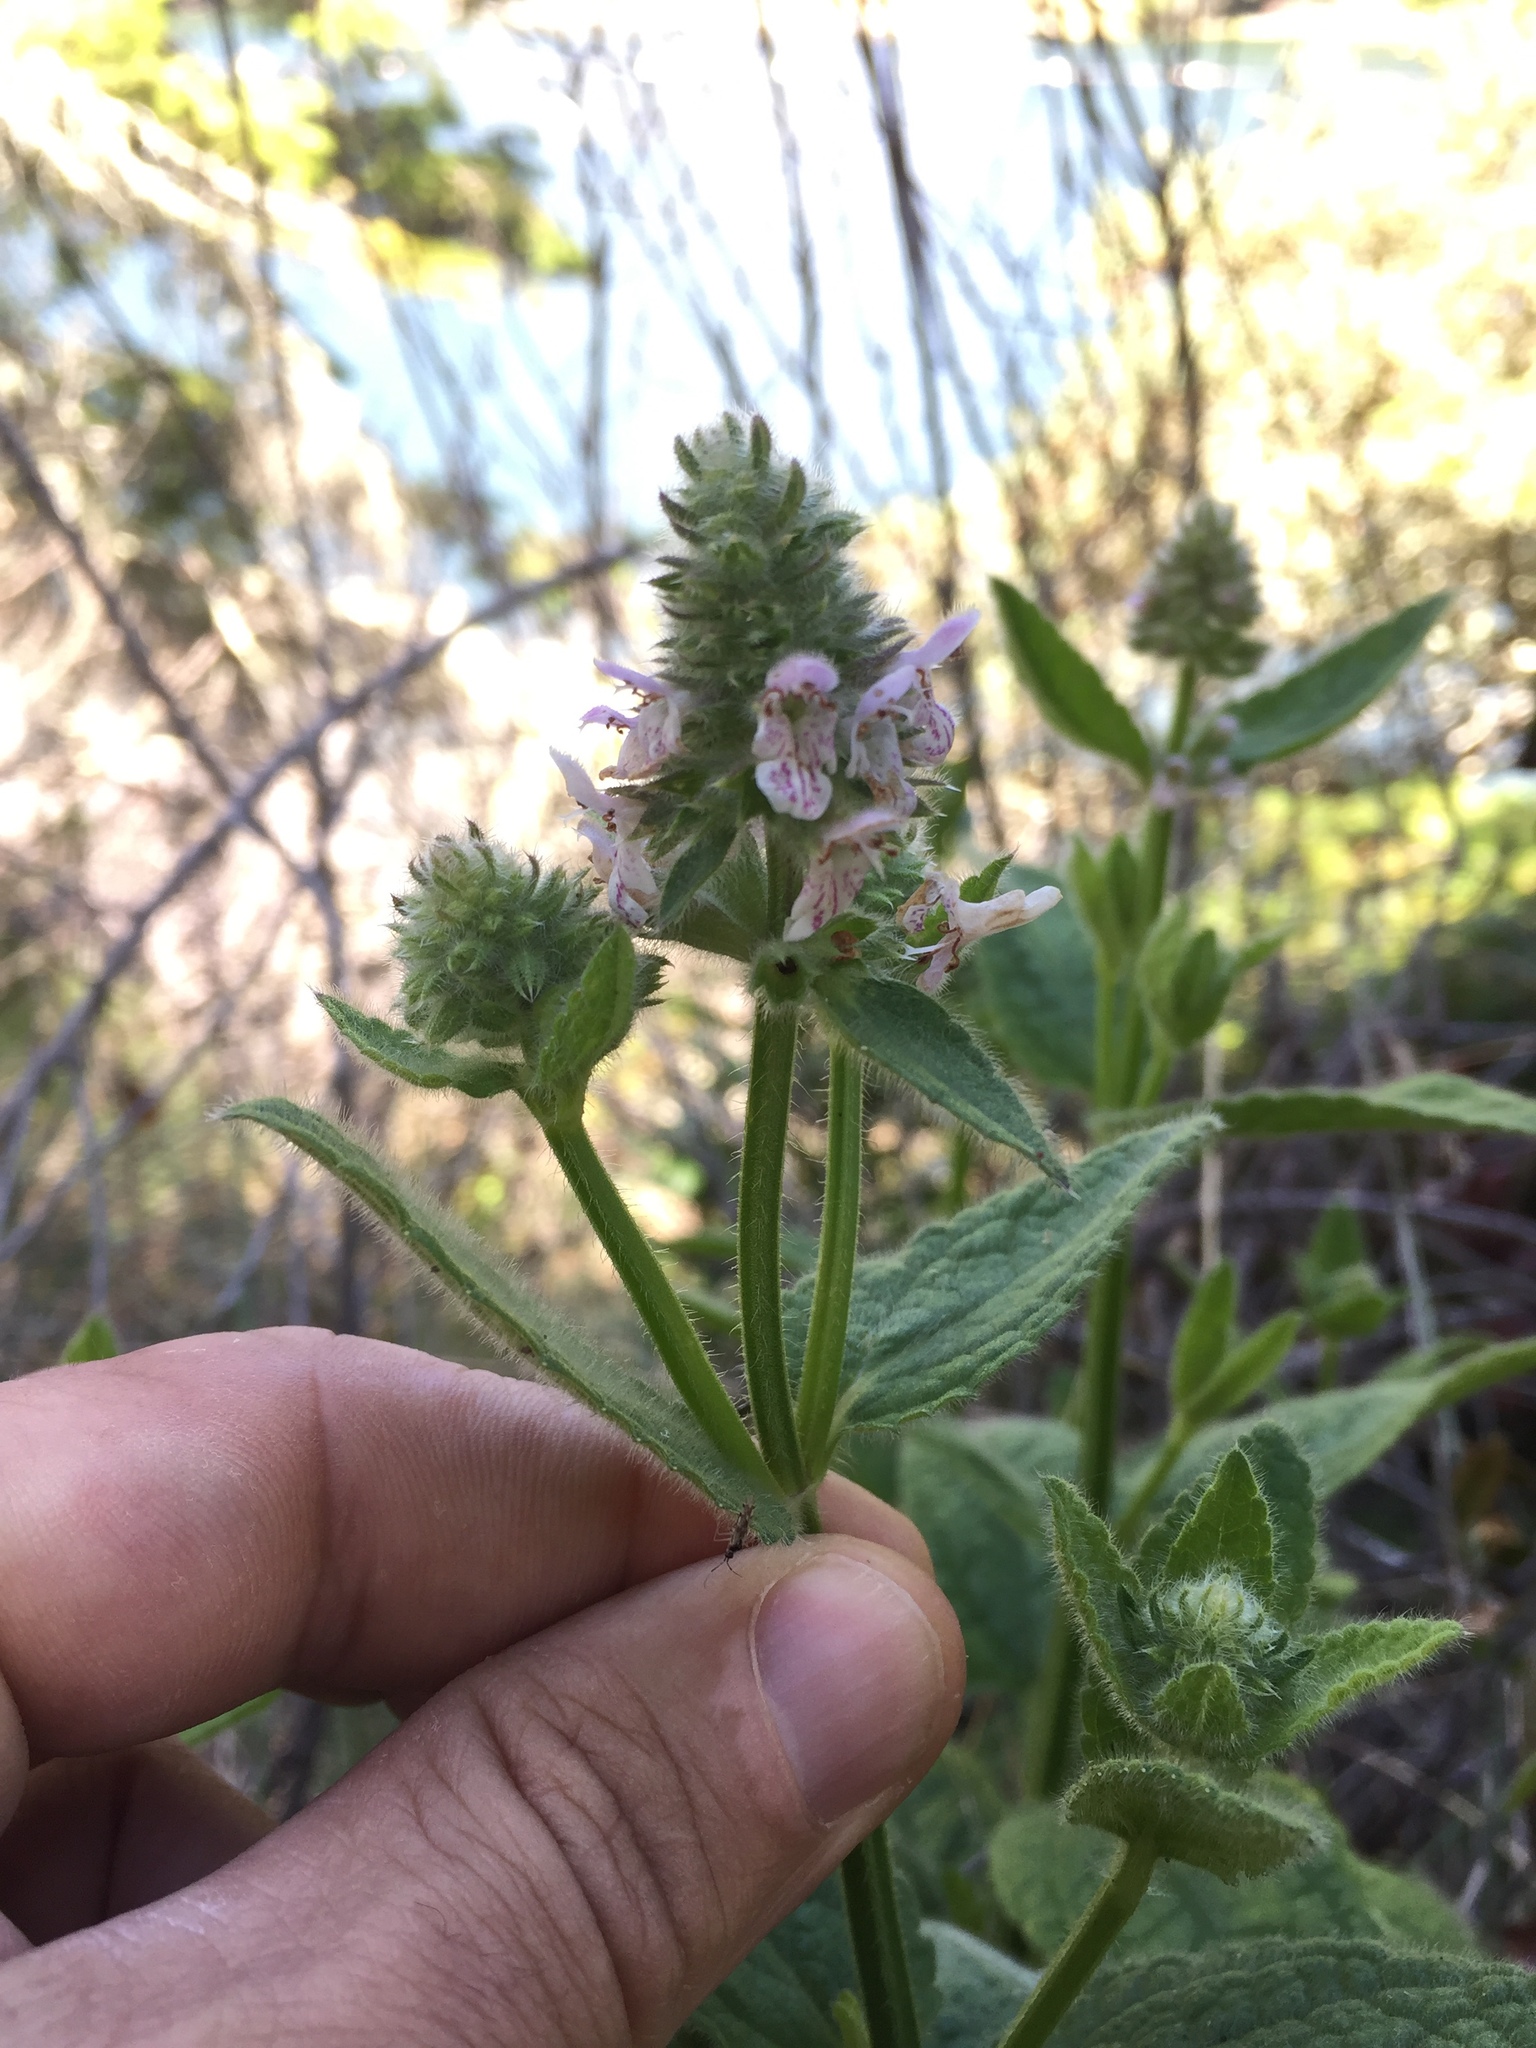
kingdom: Plantae
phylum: Tracheophyta
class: Magnoliopsida
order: Lamiales
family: Lamiaceae
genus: Stachys
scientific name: Stachys pycnantha
